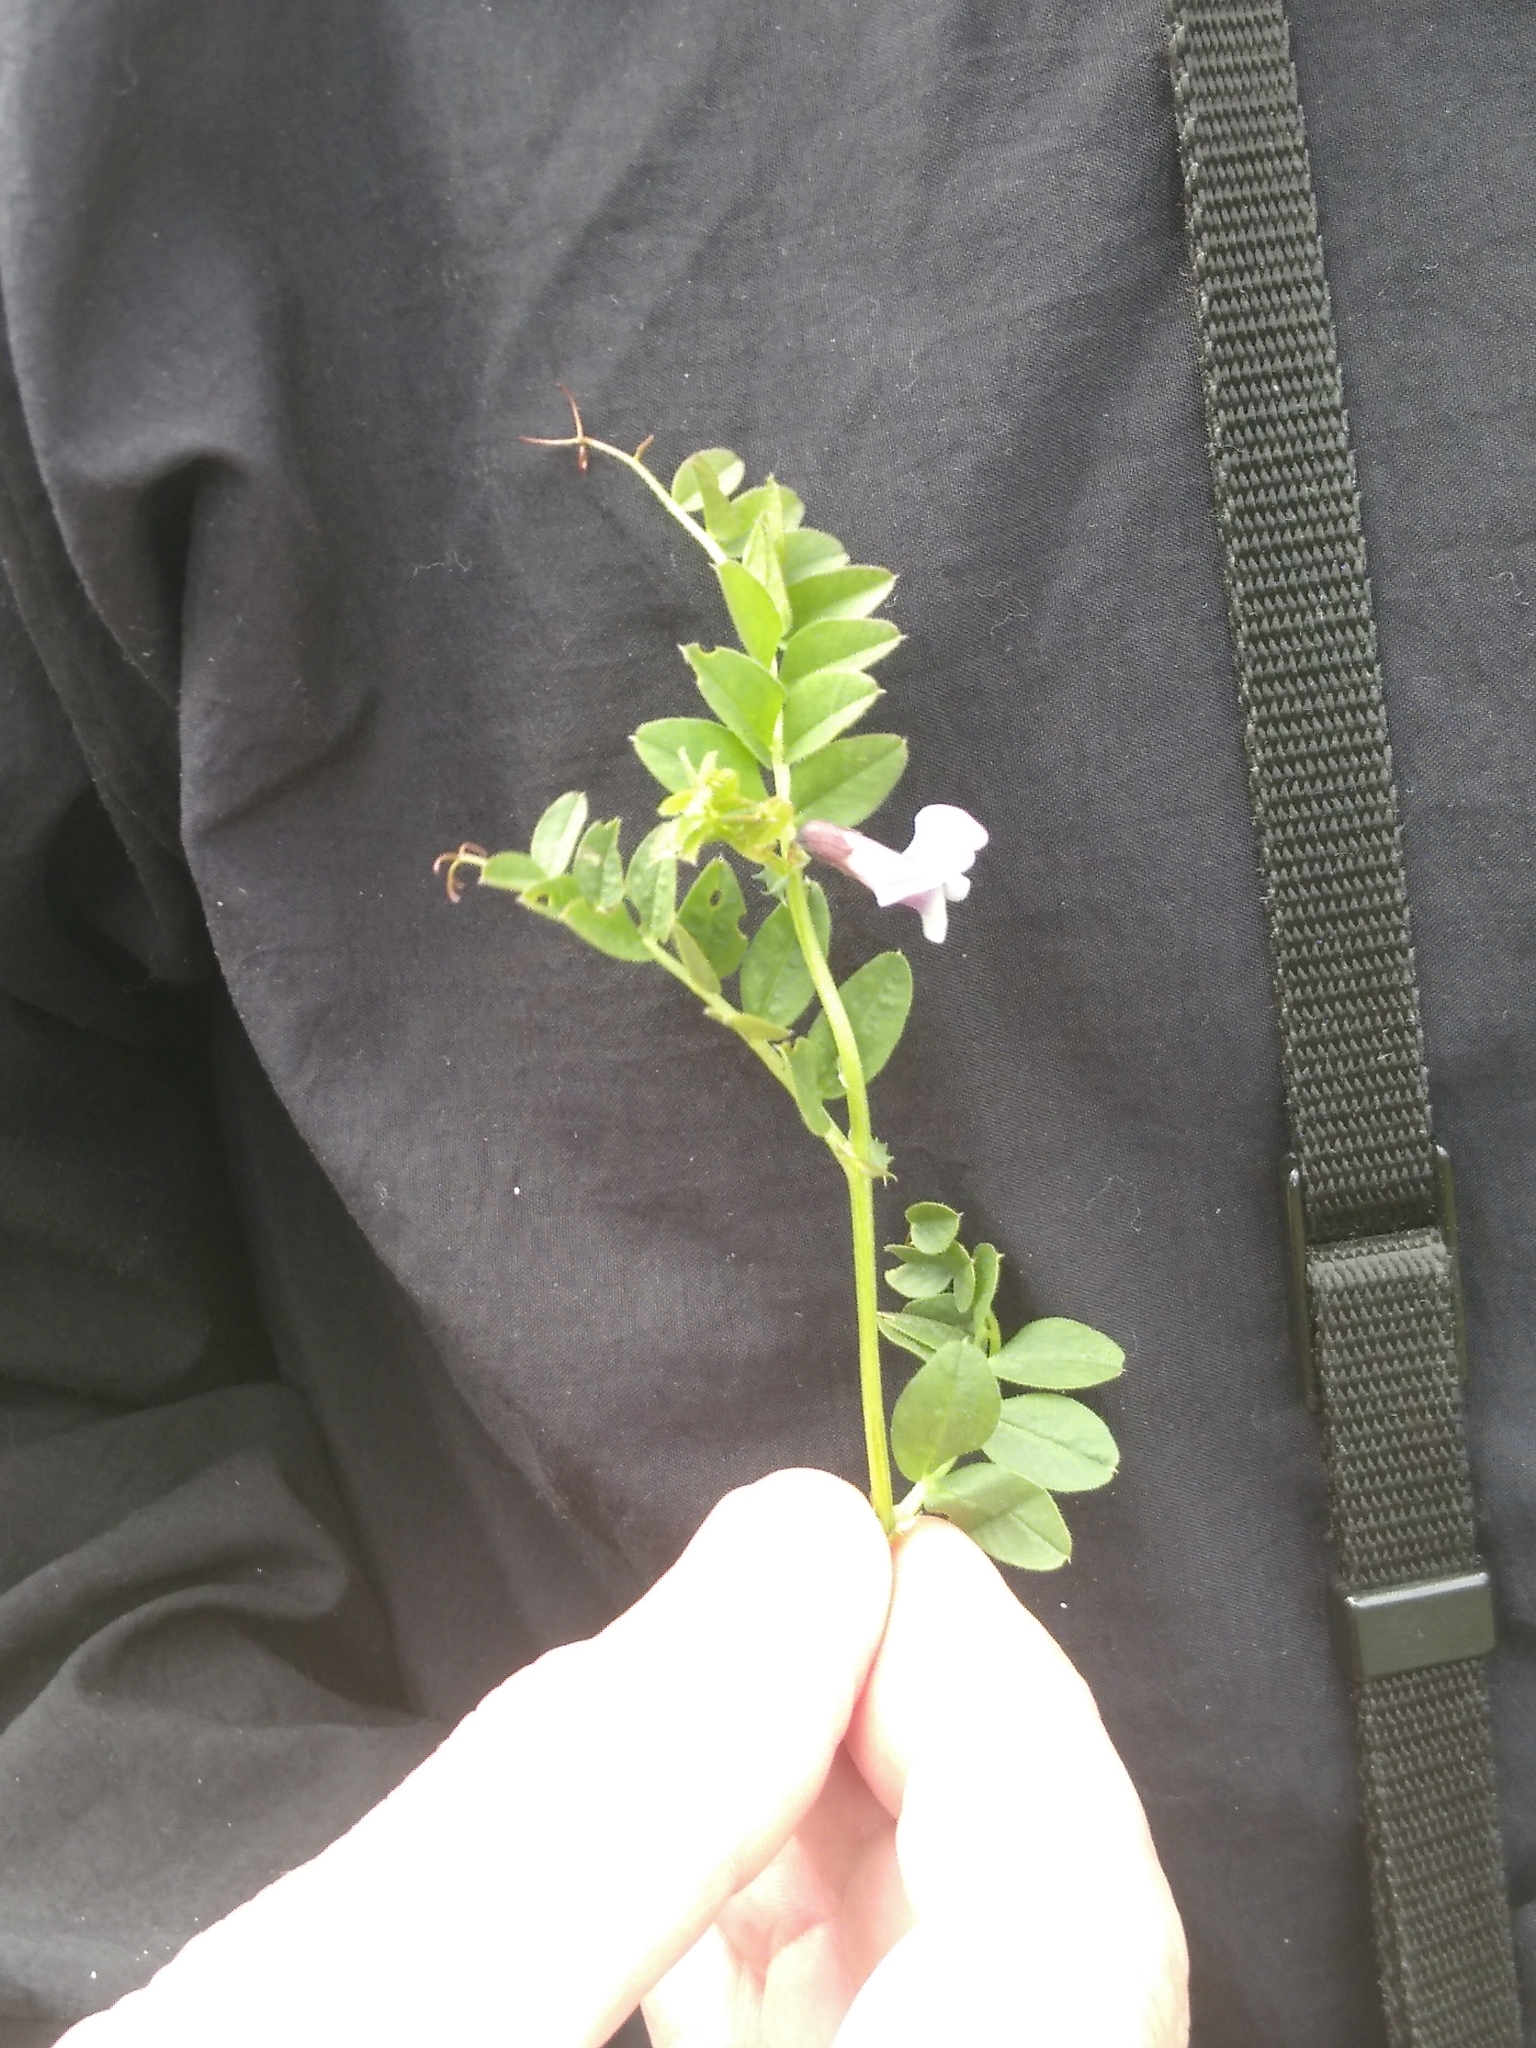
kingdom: Plantae
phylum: Tracheophyta
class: Magnoliopsida
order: Fabales
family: Fabaceae
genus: Vicia
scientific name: Vicia sepium
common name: Bush vetch
